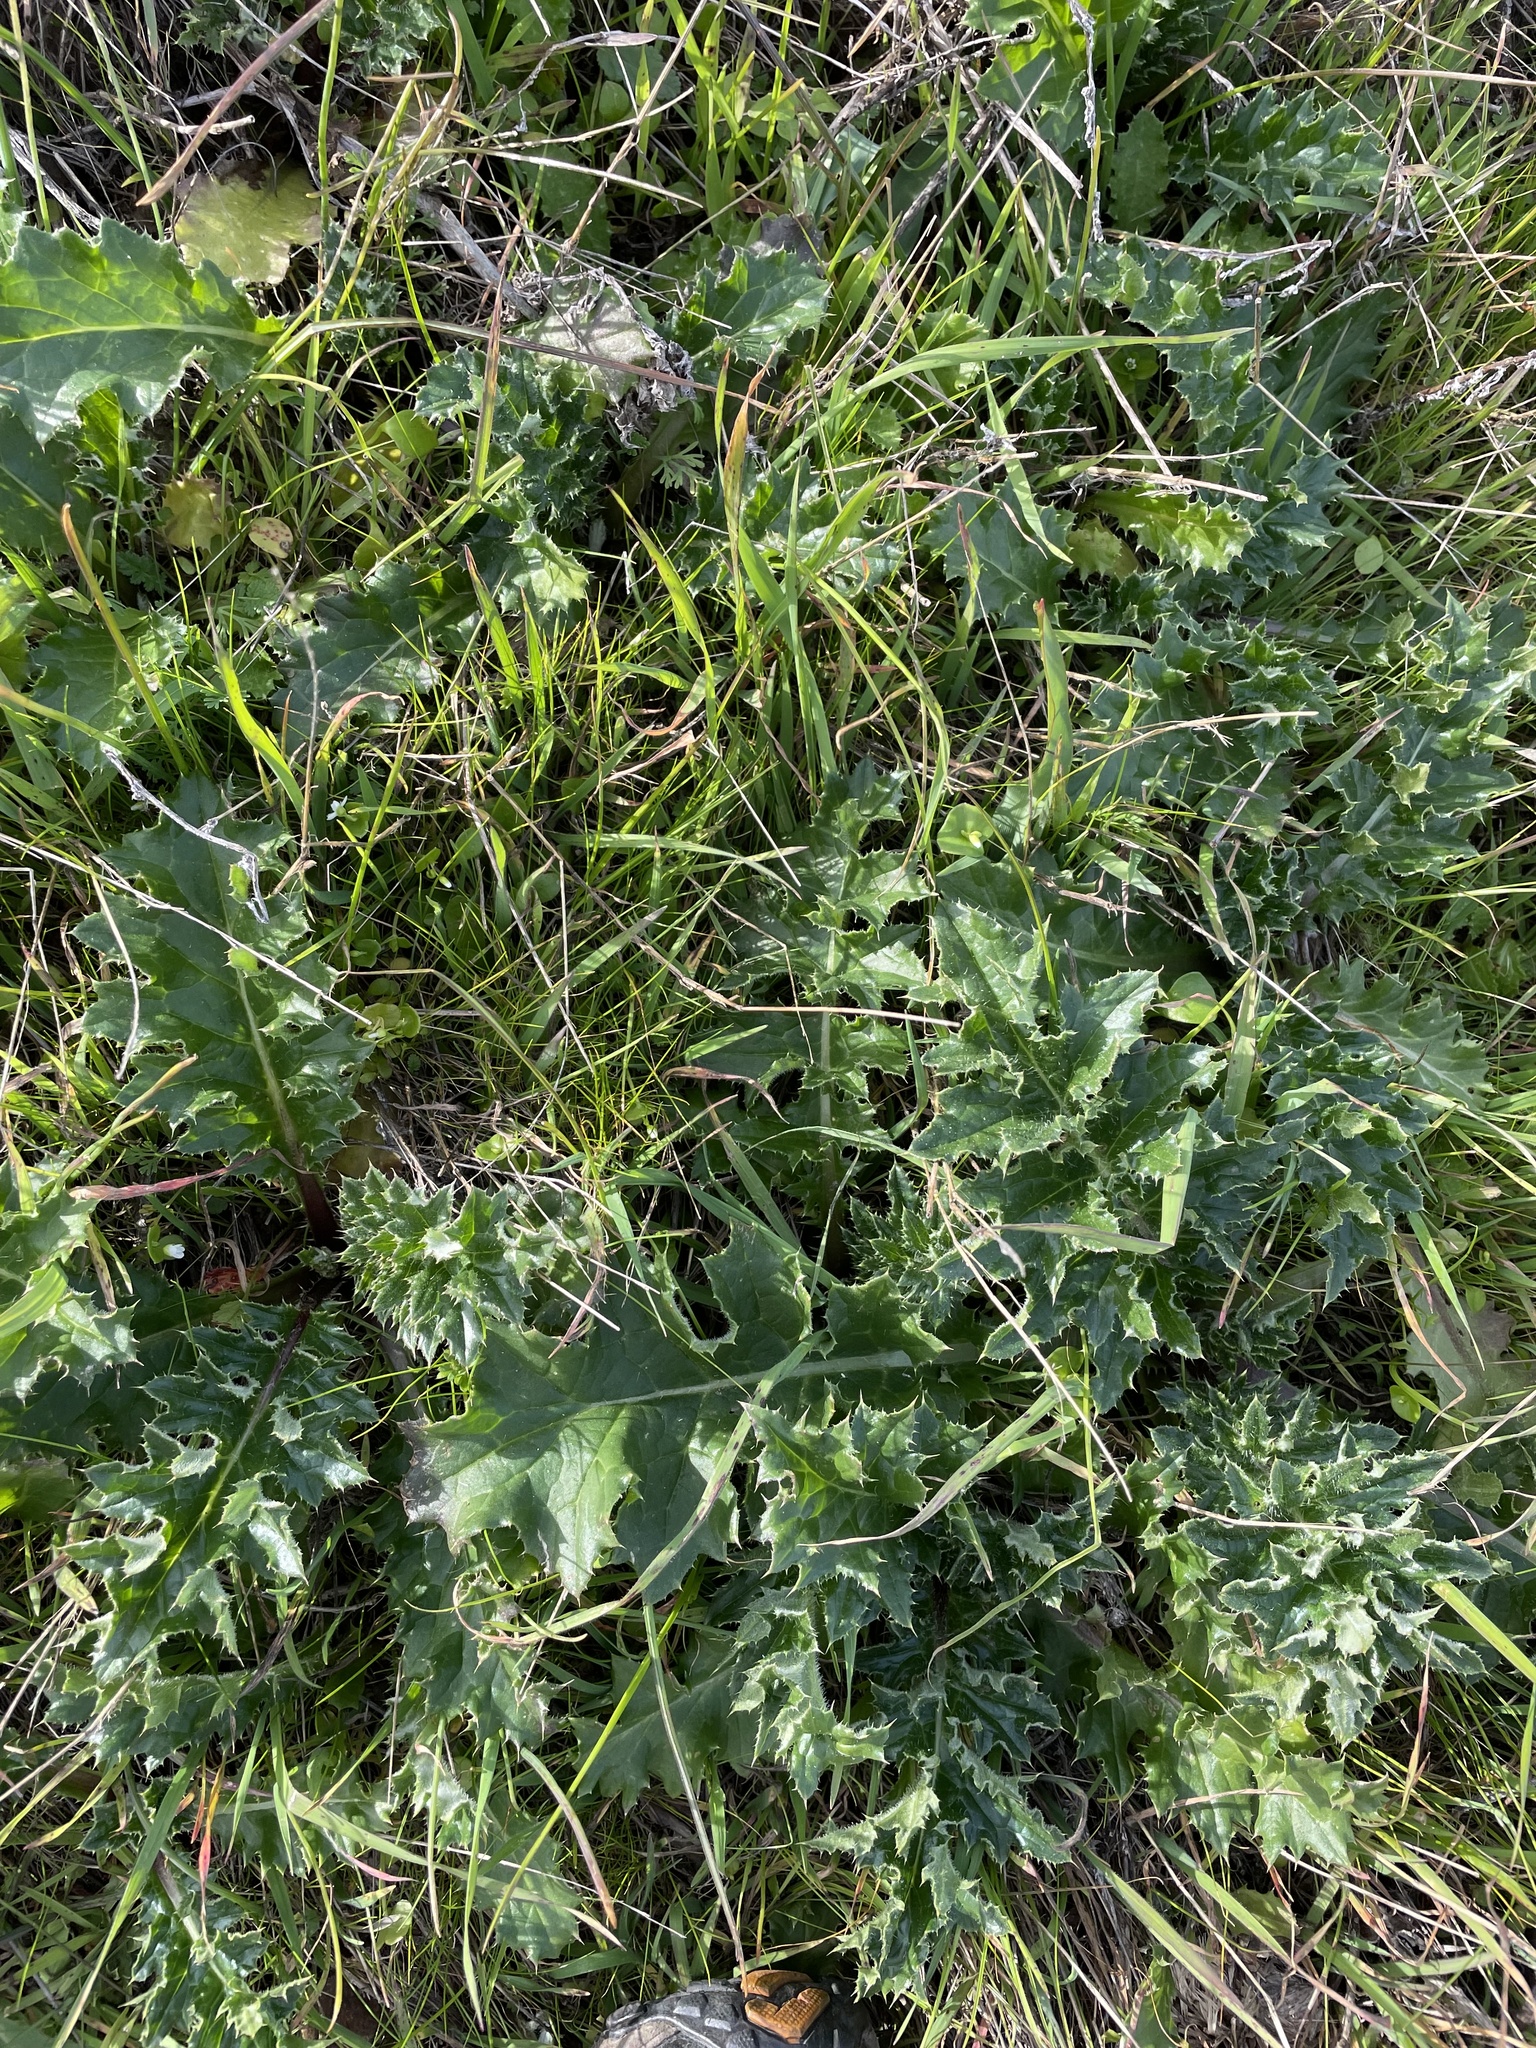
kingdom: Plantae
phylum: Tracheophyta
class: Magnoliopsida
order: Asterales
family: Asteraceae
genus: Cirsium
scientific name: Cirsium quercetorum
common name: Alameda county thistle
